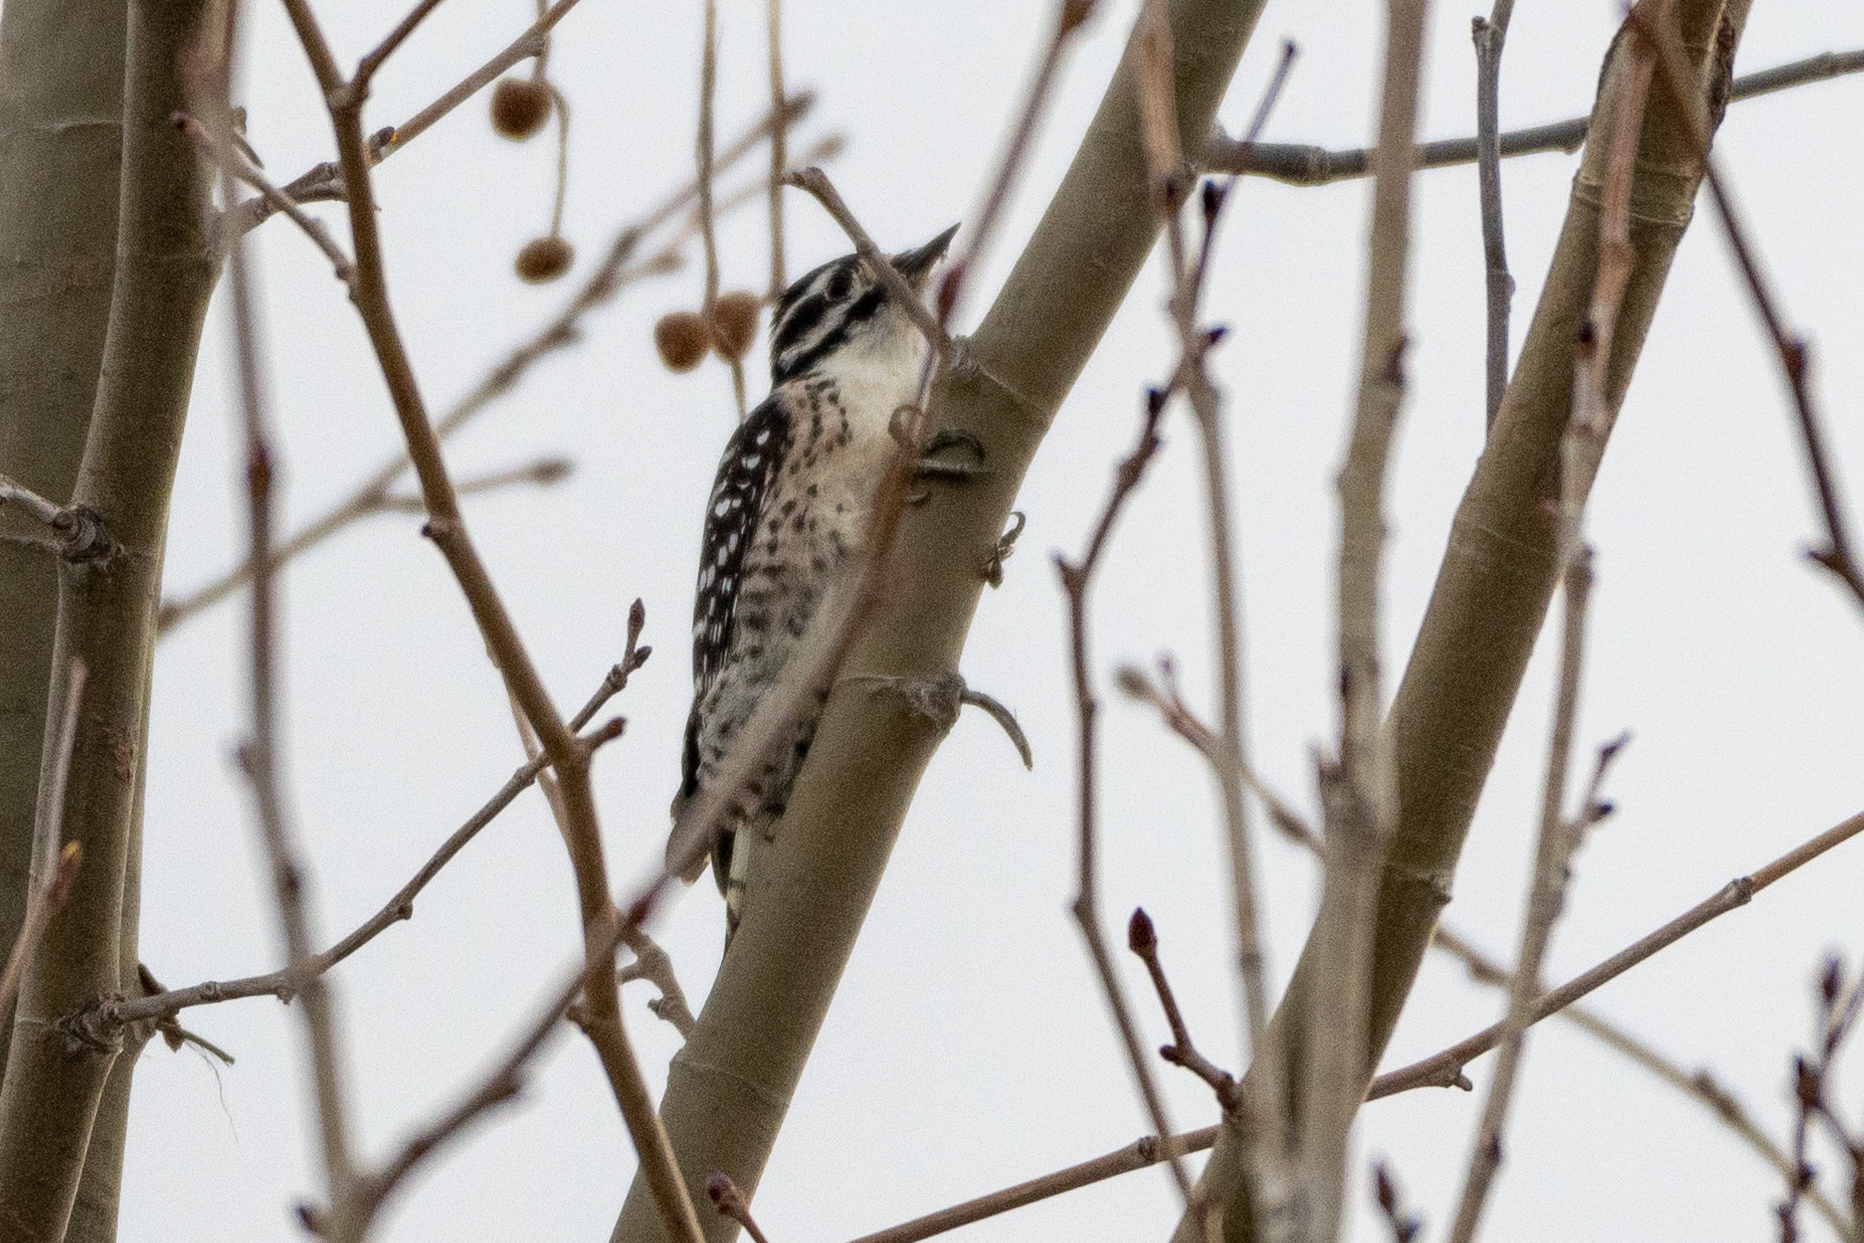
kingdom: Animalia
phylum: Chordata
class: Aves
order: Piciformes
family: Picidae
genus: Dryobates
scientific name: Dryobates nuttallii
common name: Nuttall's woodpecker
